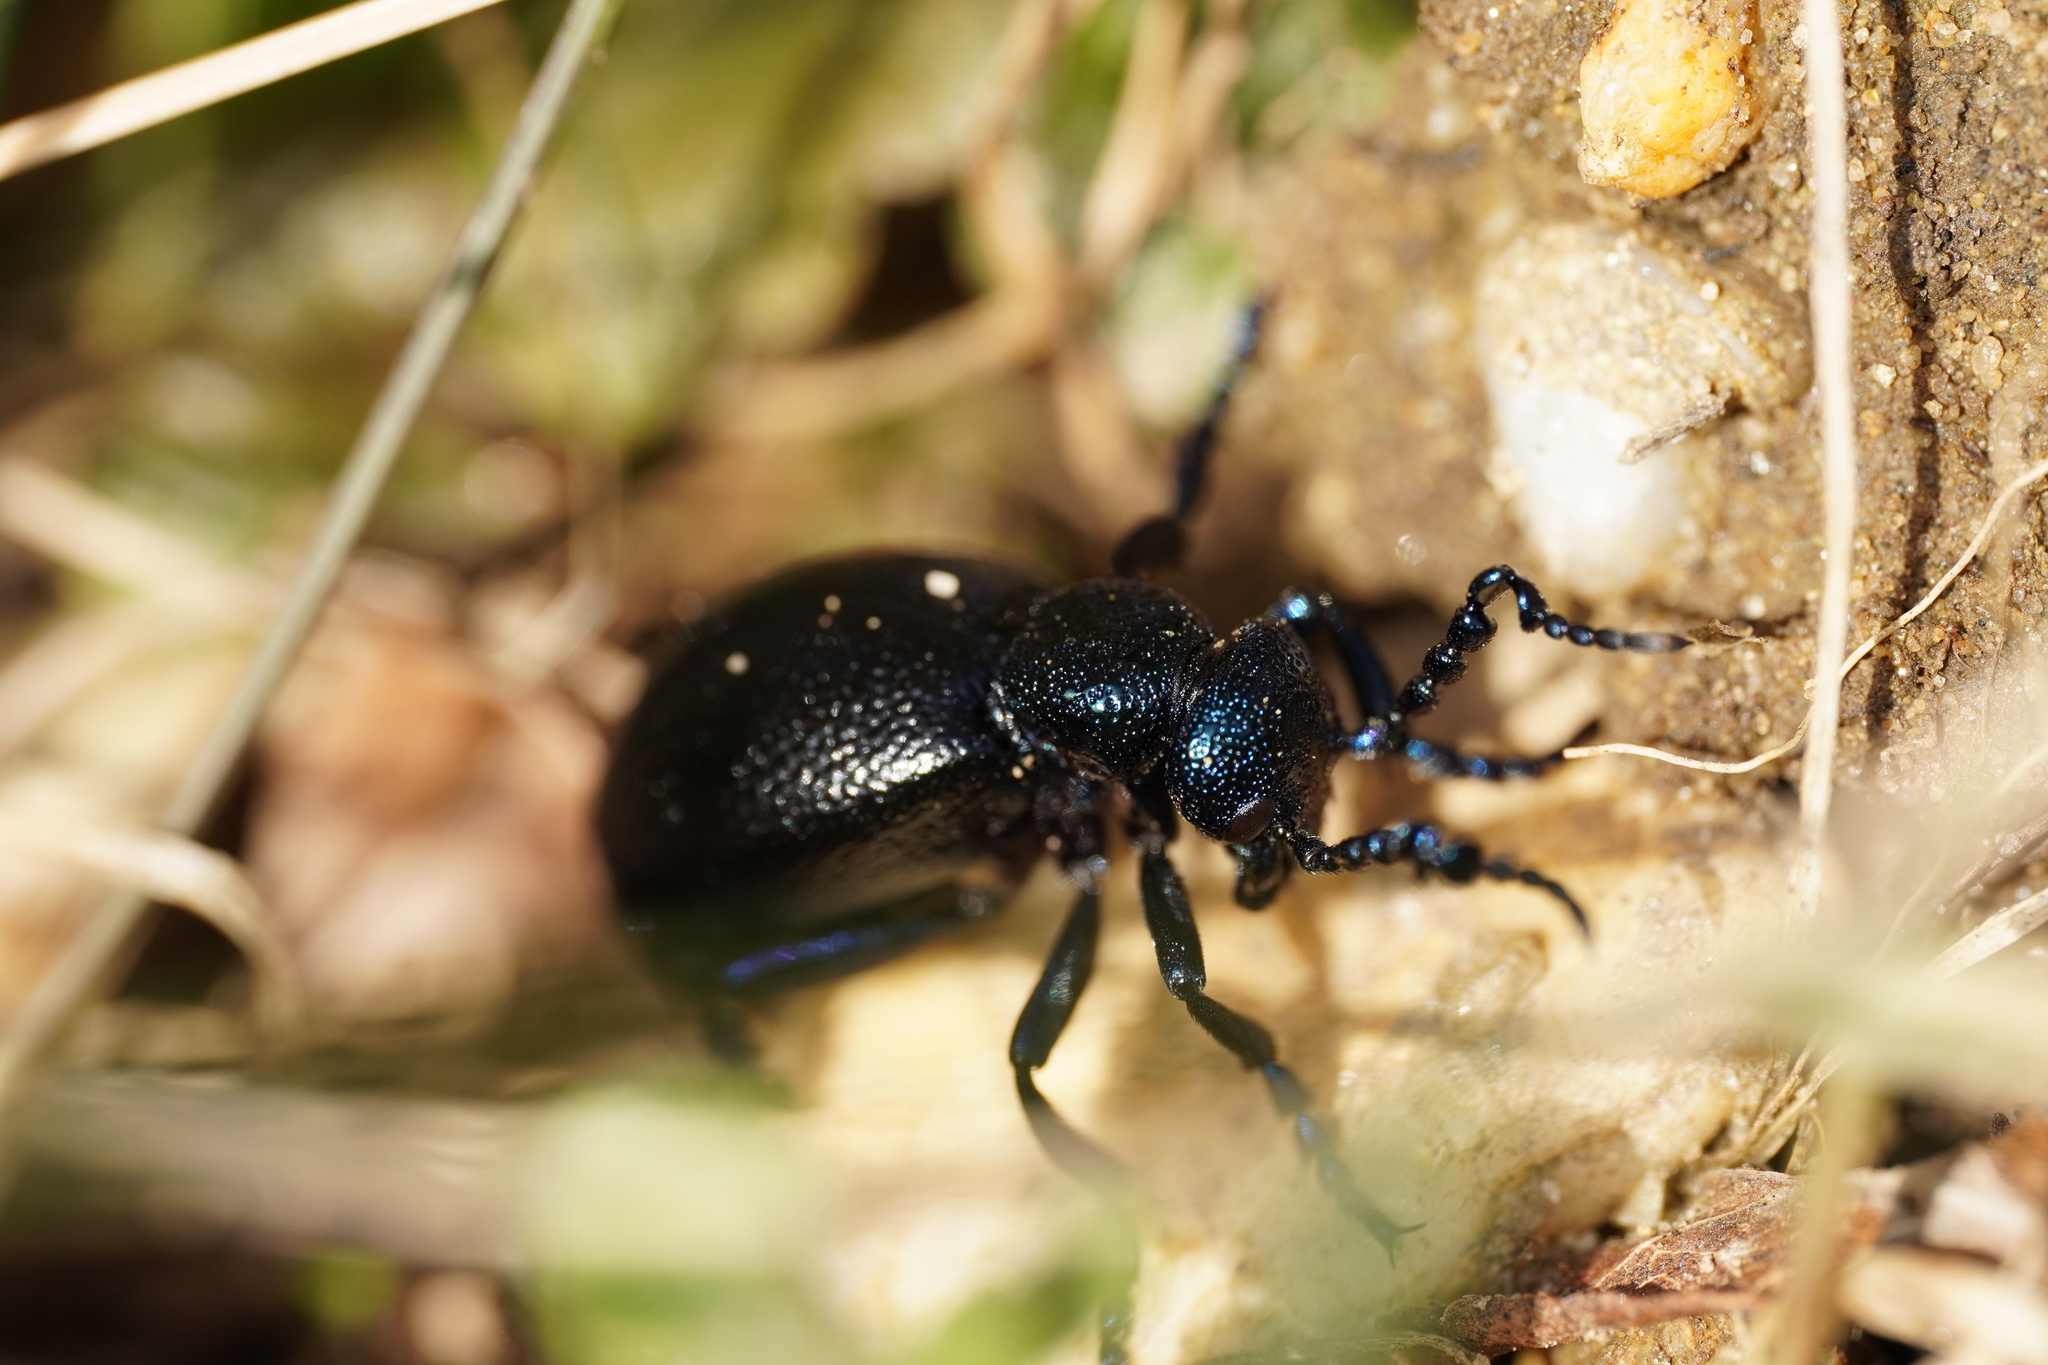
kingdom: Animalia
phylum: Arthropoda
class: Insecta
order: Coleoptera
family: Meloidae
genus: Meloe
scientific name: Meloe proscarabaeus
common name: Black oil-beetle
